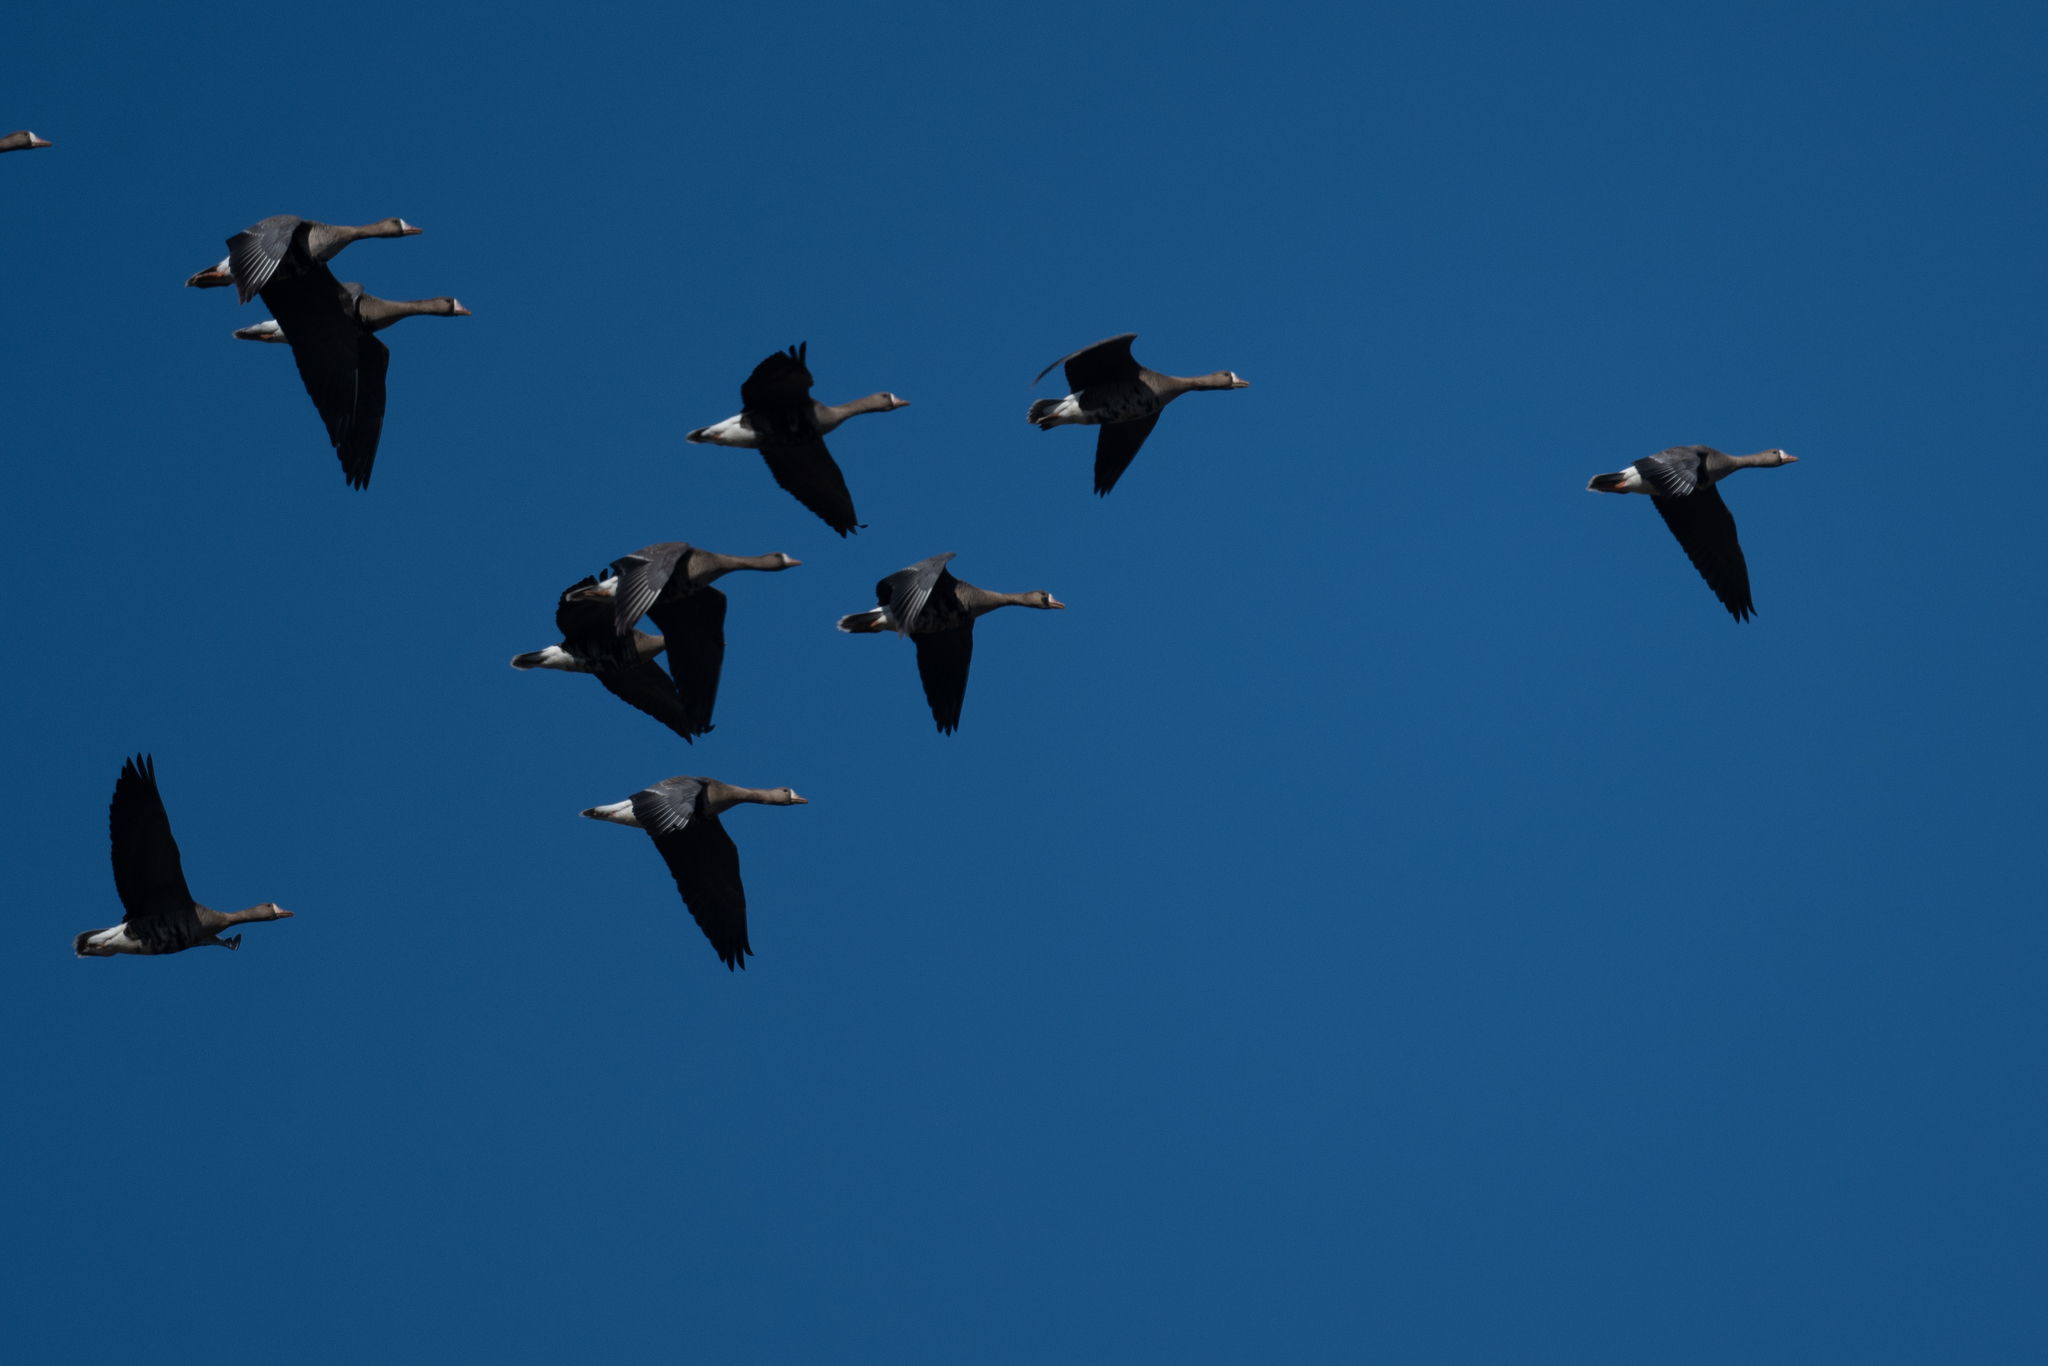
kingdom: Animalia
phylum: Chordata
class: Aves
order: Anseriformes
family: Anatidae
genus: Anser
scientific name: Anser albifrons
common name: Greater white-fronted goose
